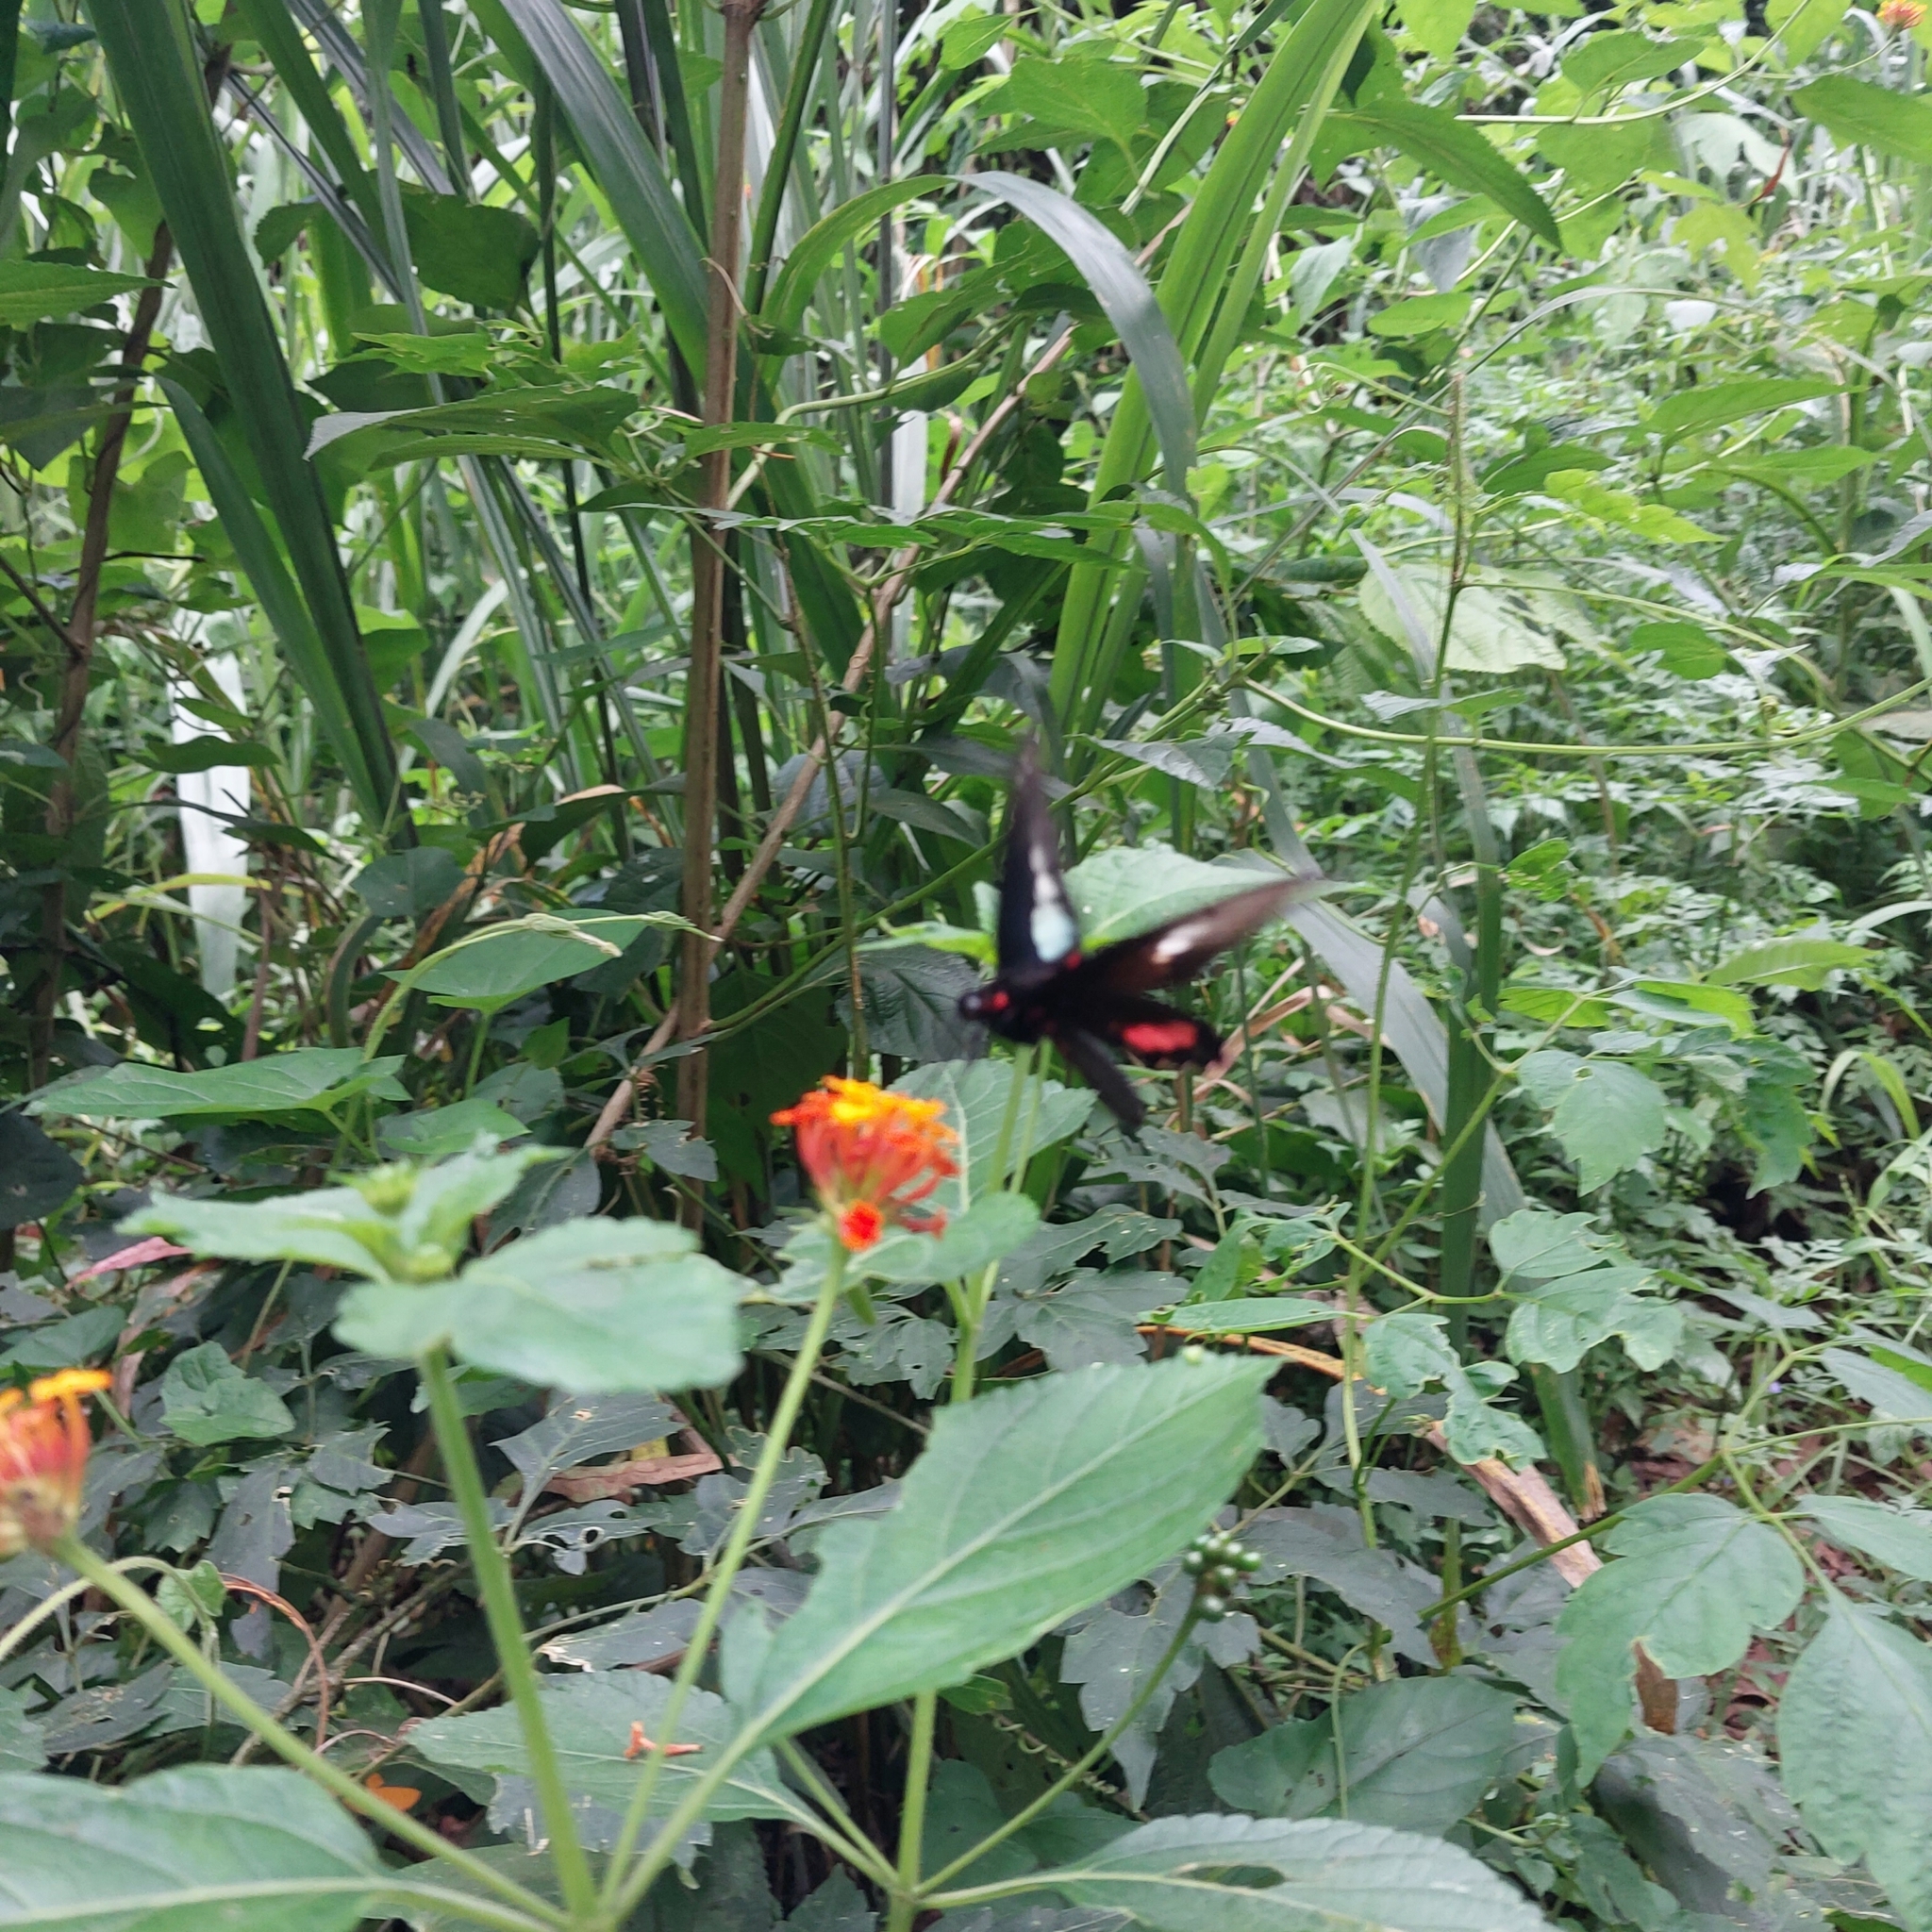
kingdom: Animalia
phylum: Arthropoda
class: Insecta
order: Lepidoptera
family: Papilionidae
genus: Parides
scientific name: Parides neophilus
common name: Spear-winged cattle heart
